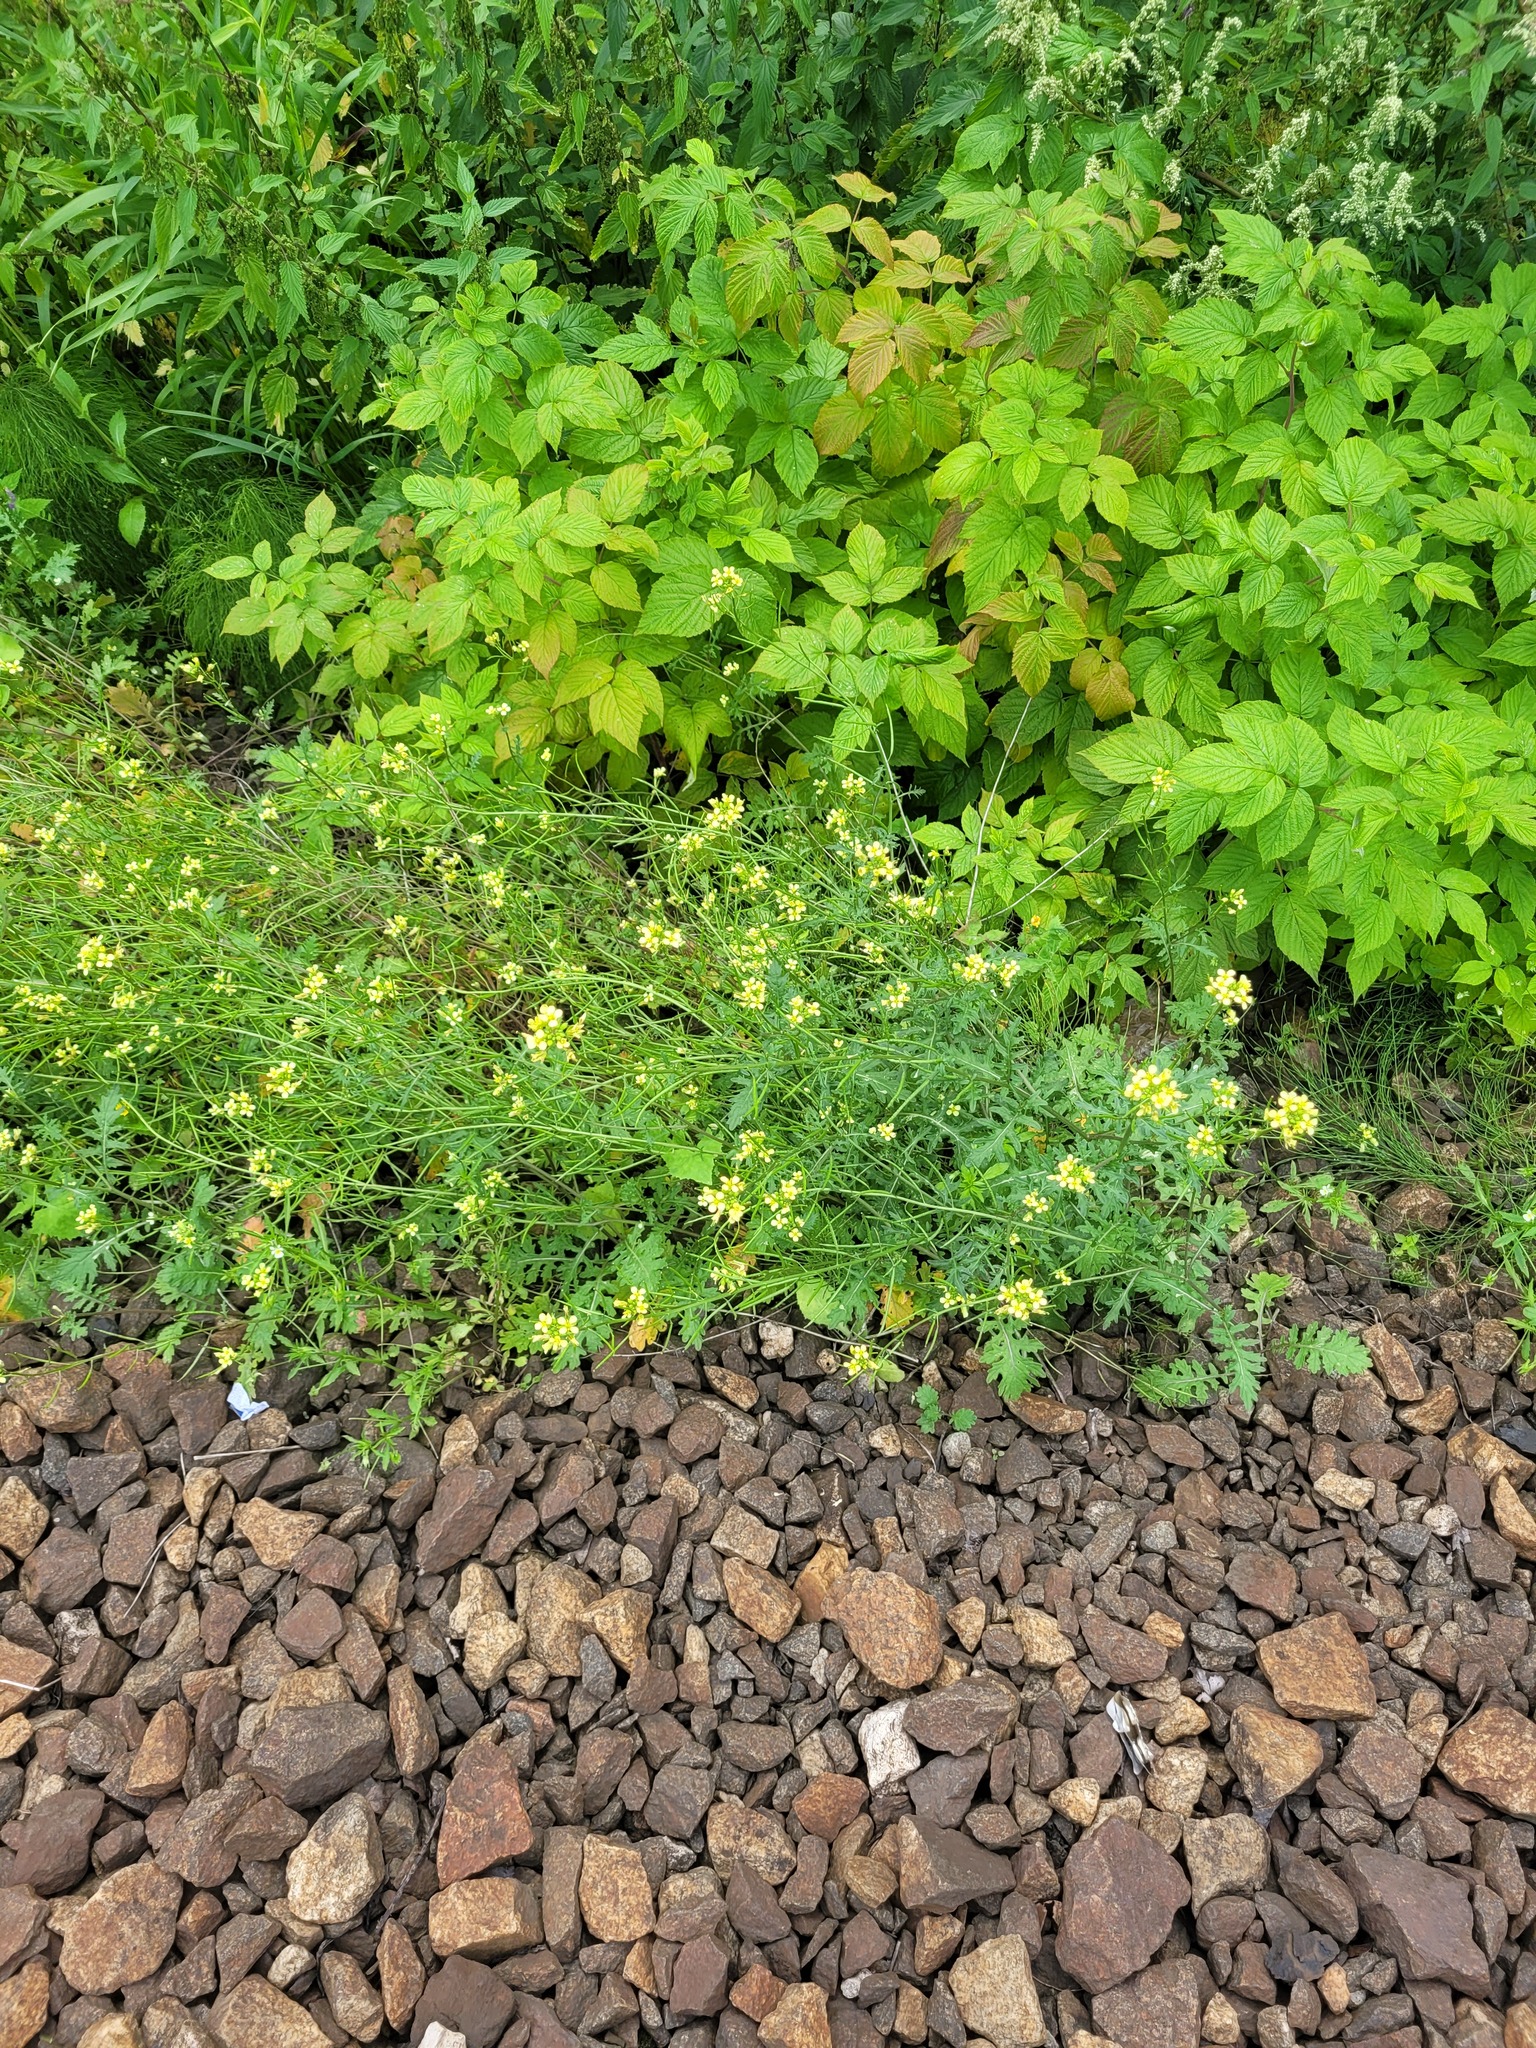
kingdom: Plantae
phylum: Tracheophyta
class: Magnoliopsida
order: Brassicales
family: Brassicaceae
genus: Erucastrum
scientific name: Erucastrum gallicum
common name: Hairy rocket
